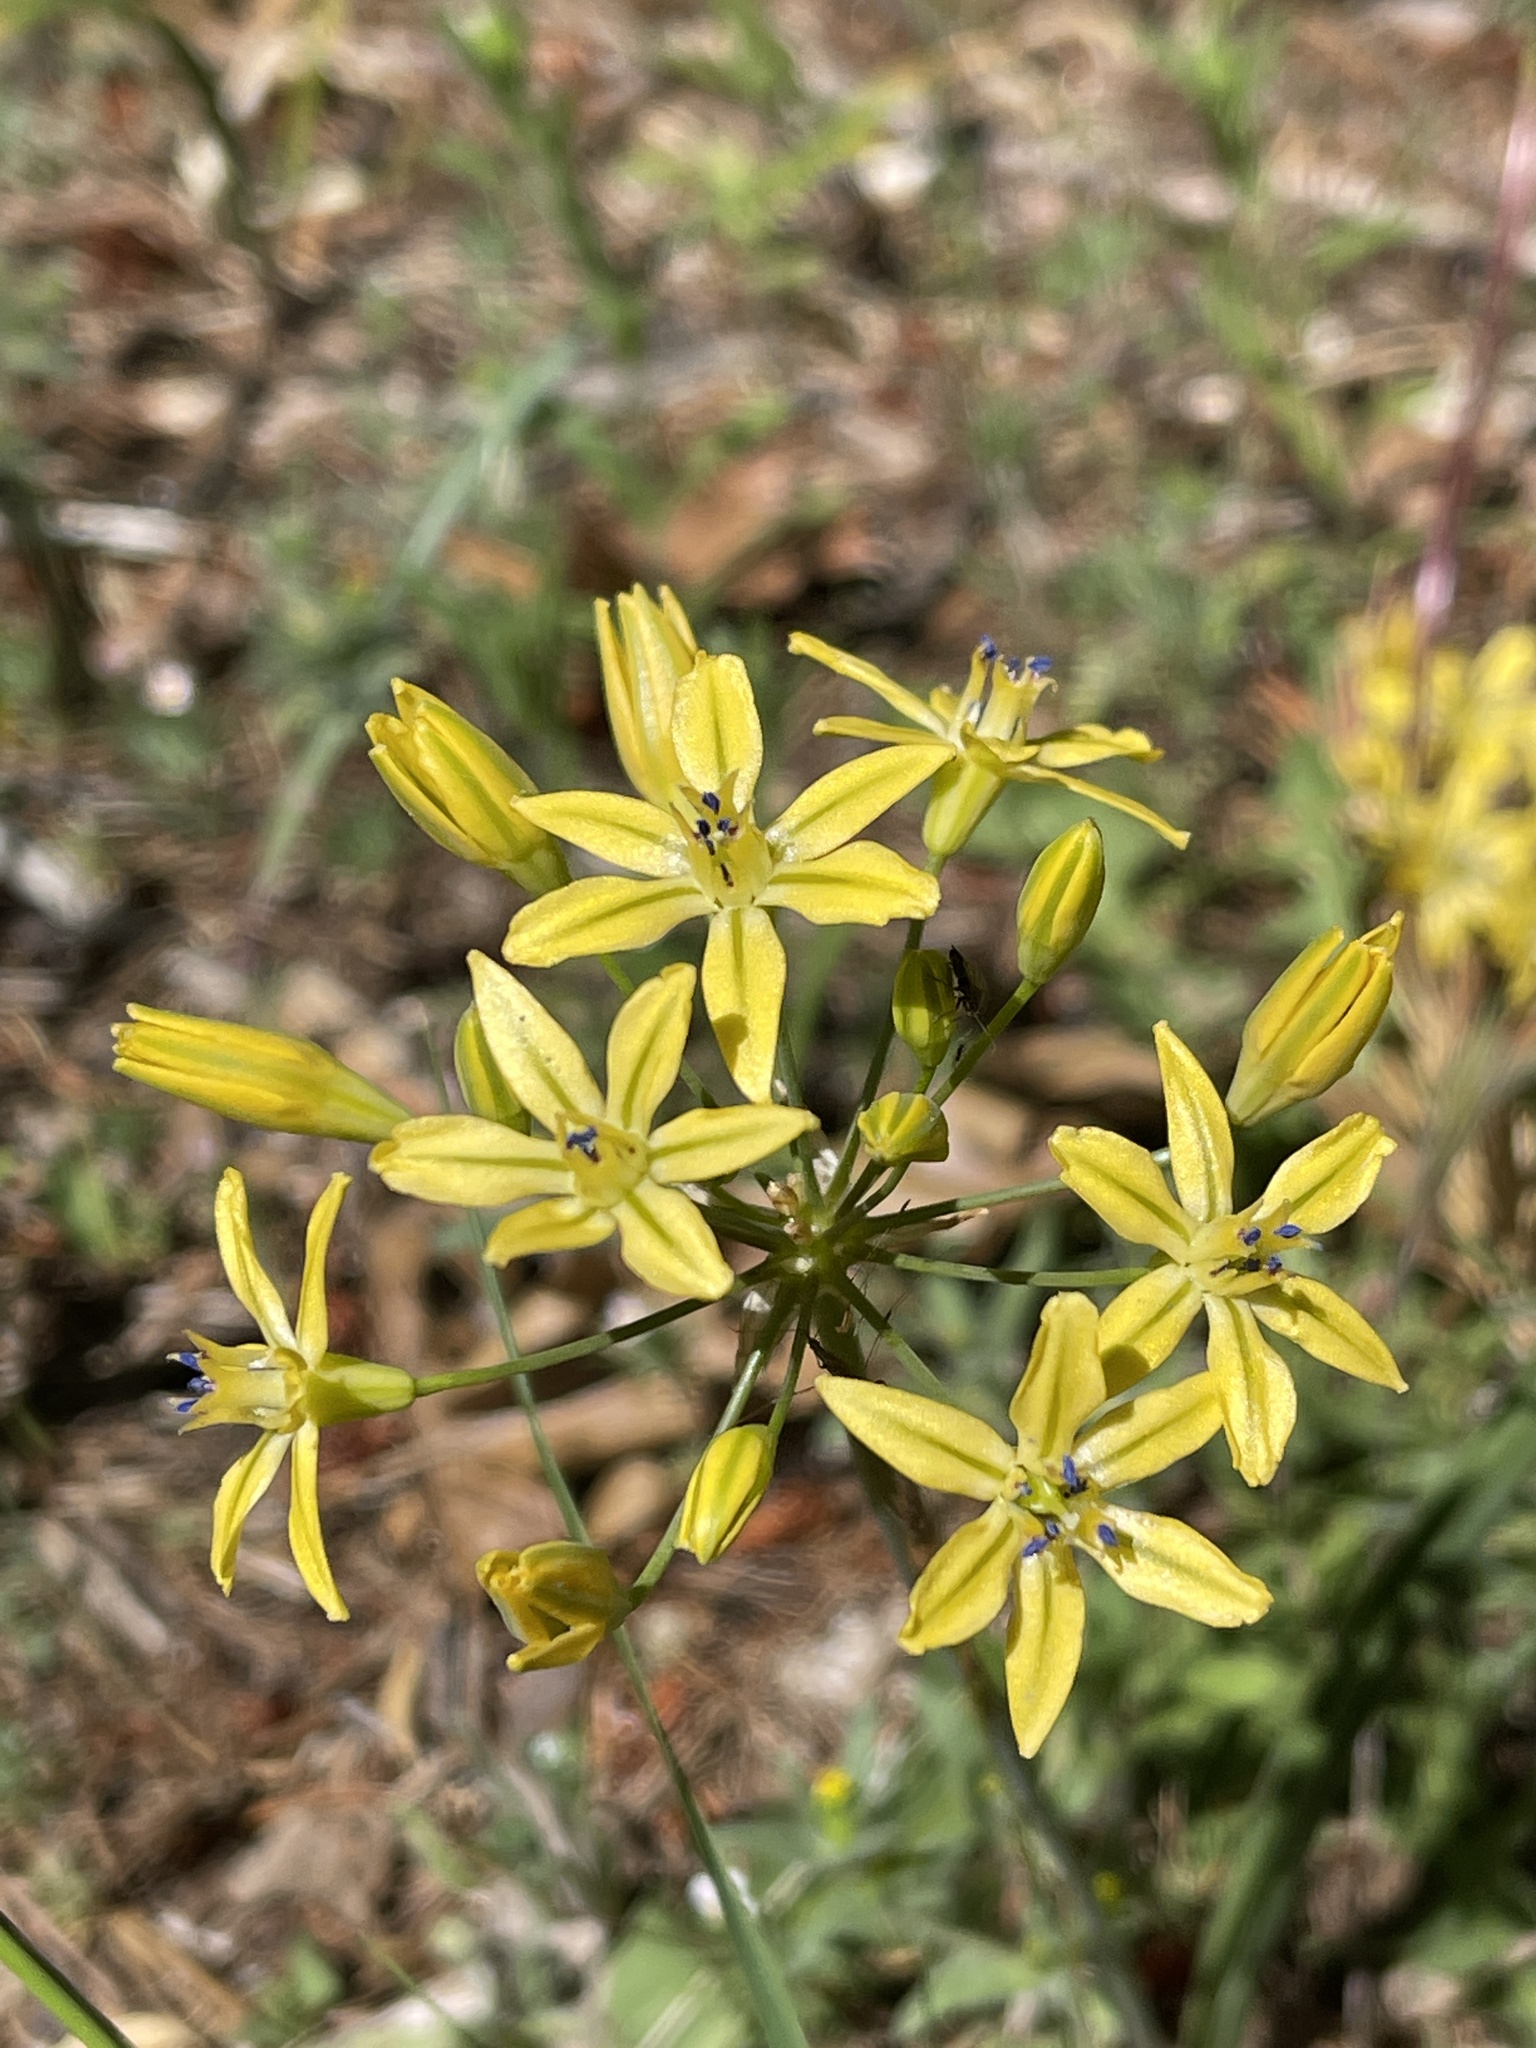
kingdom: Plantae
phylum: Tracheophyta
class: Liliopsida
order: Asparagales
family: Asparagaceae
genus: Triteleia
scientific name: Triteleia ixioides
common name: Yellow-brodiaea
